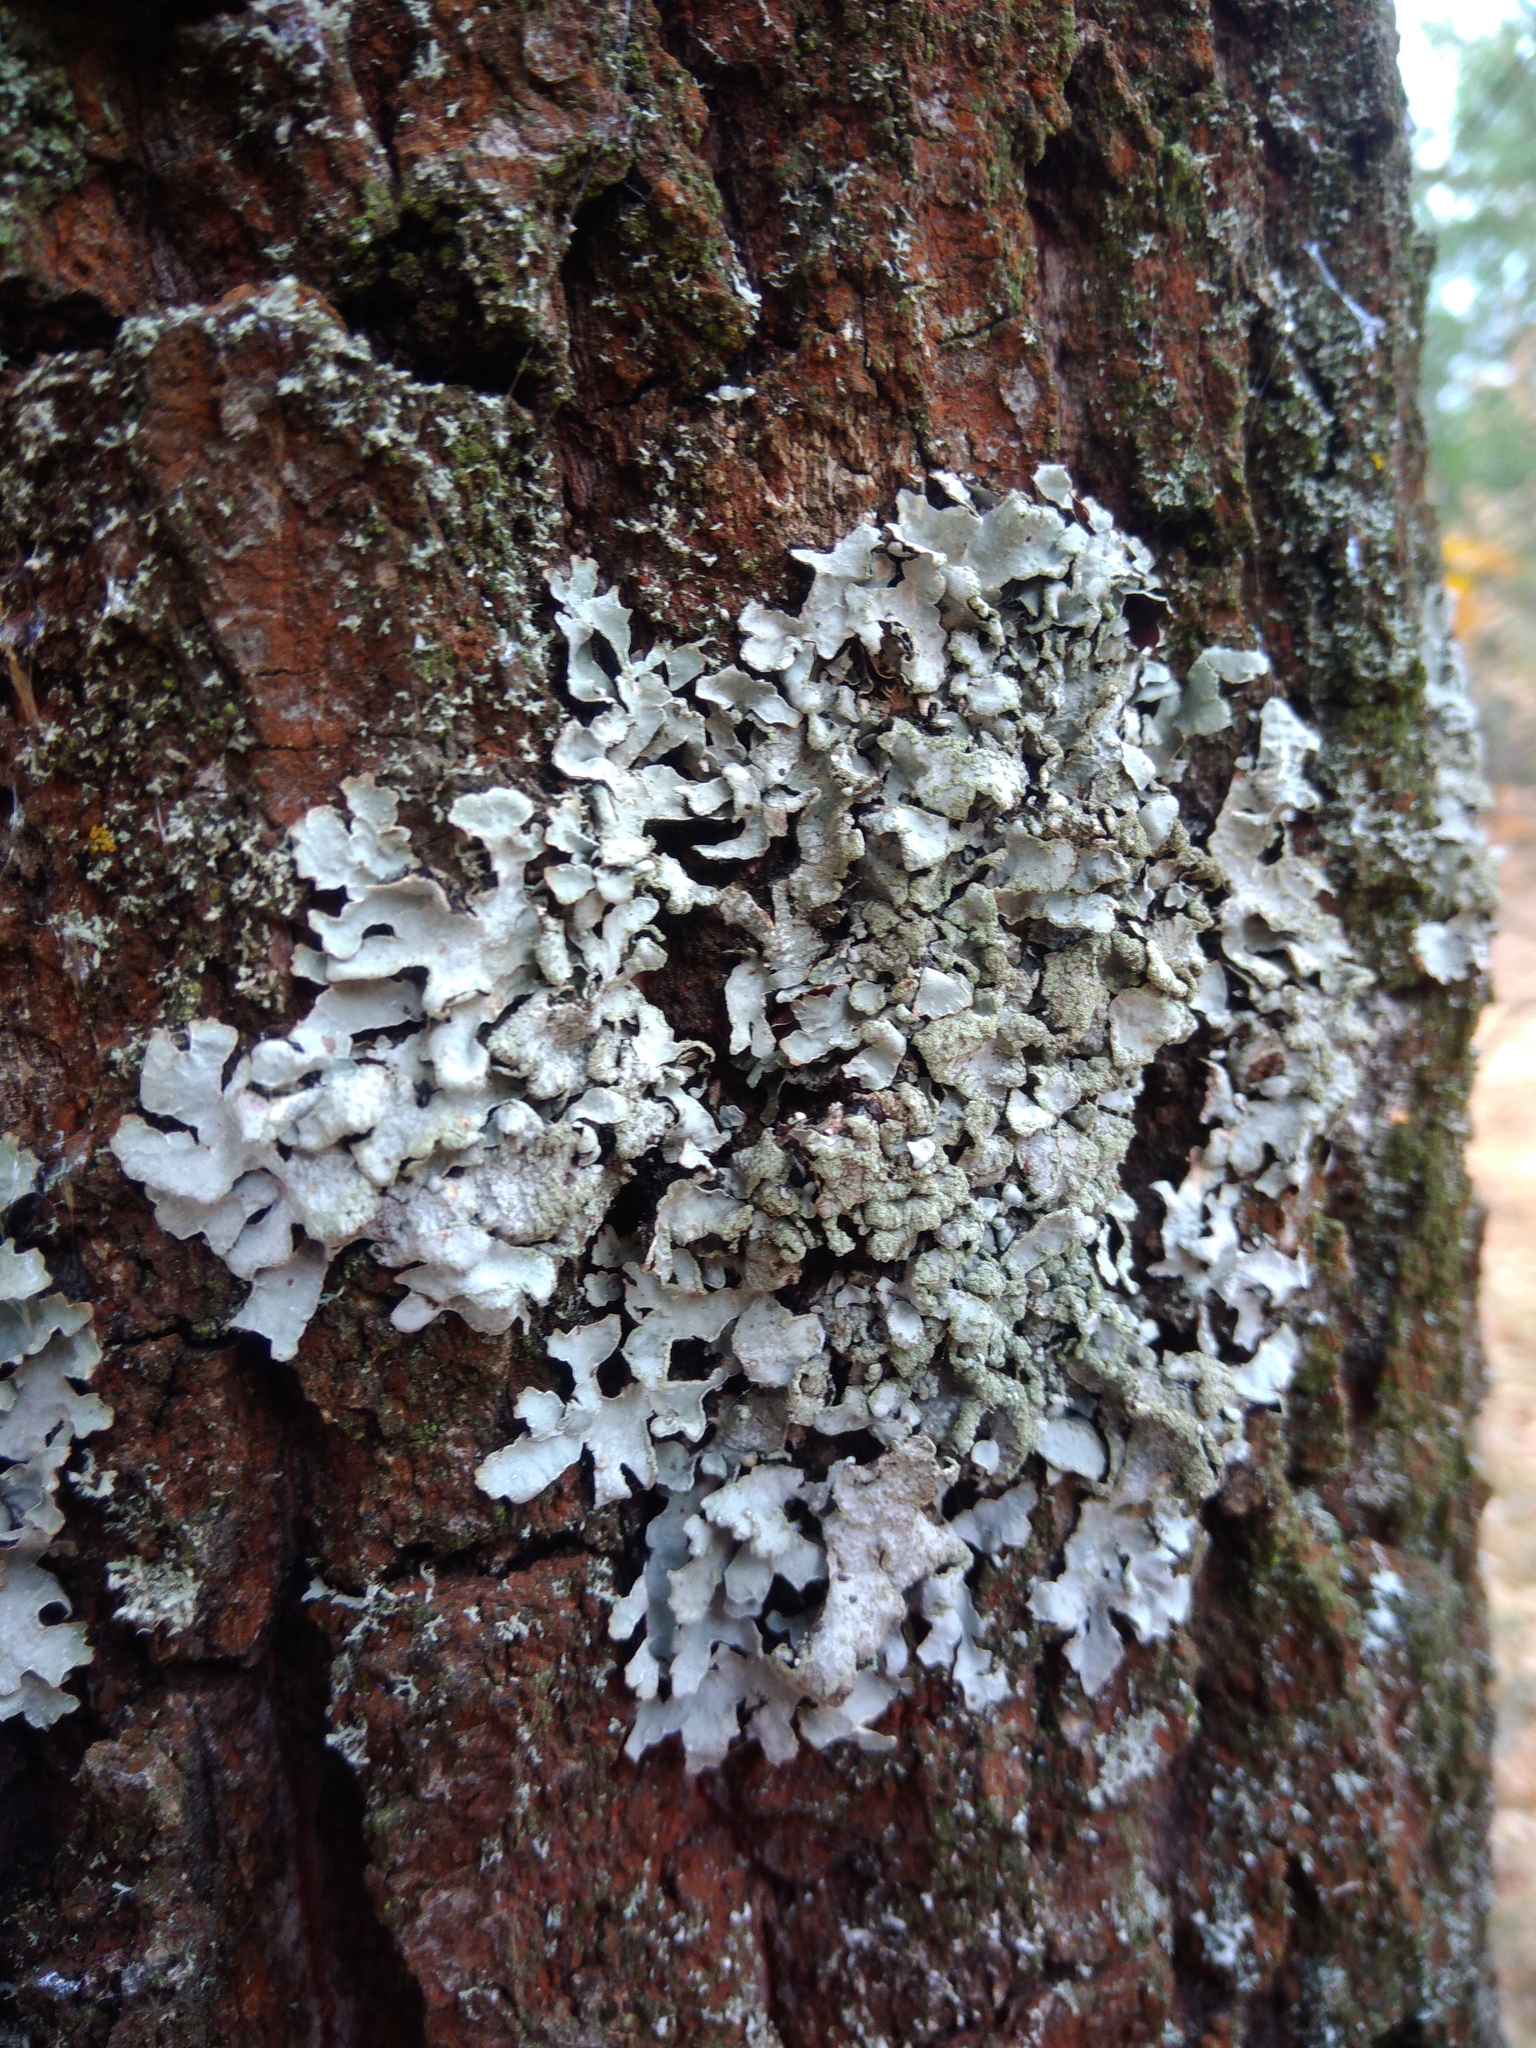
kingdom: Fungi
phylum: Ascomycota
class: Lecanoromycetes
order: Lecanorales
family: Parmeliaceae
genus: Parmelia
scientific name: Parmelia sulcata
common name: Netted shield lichen
